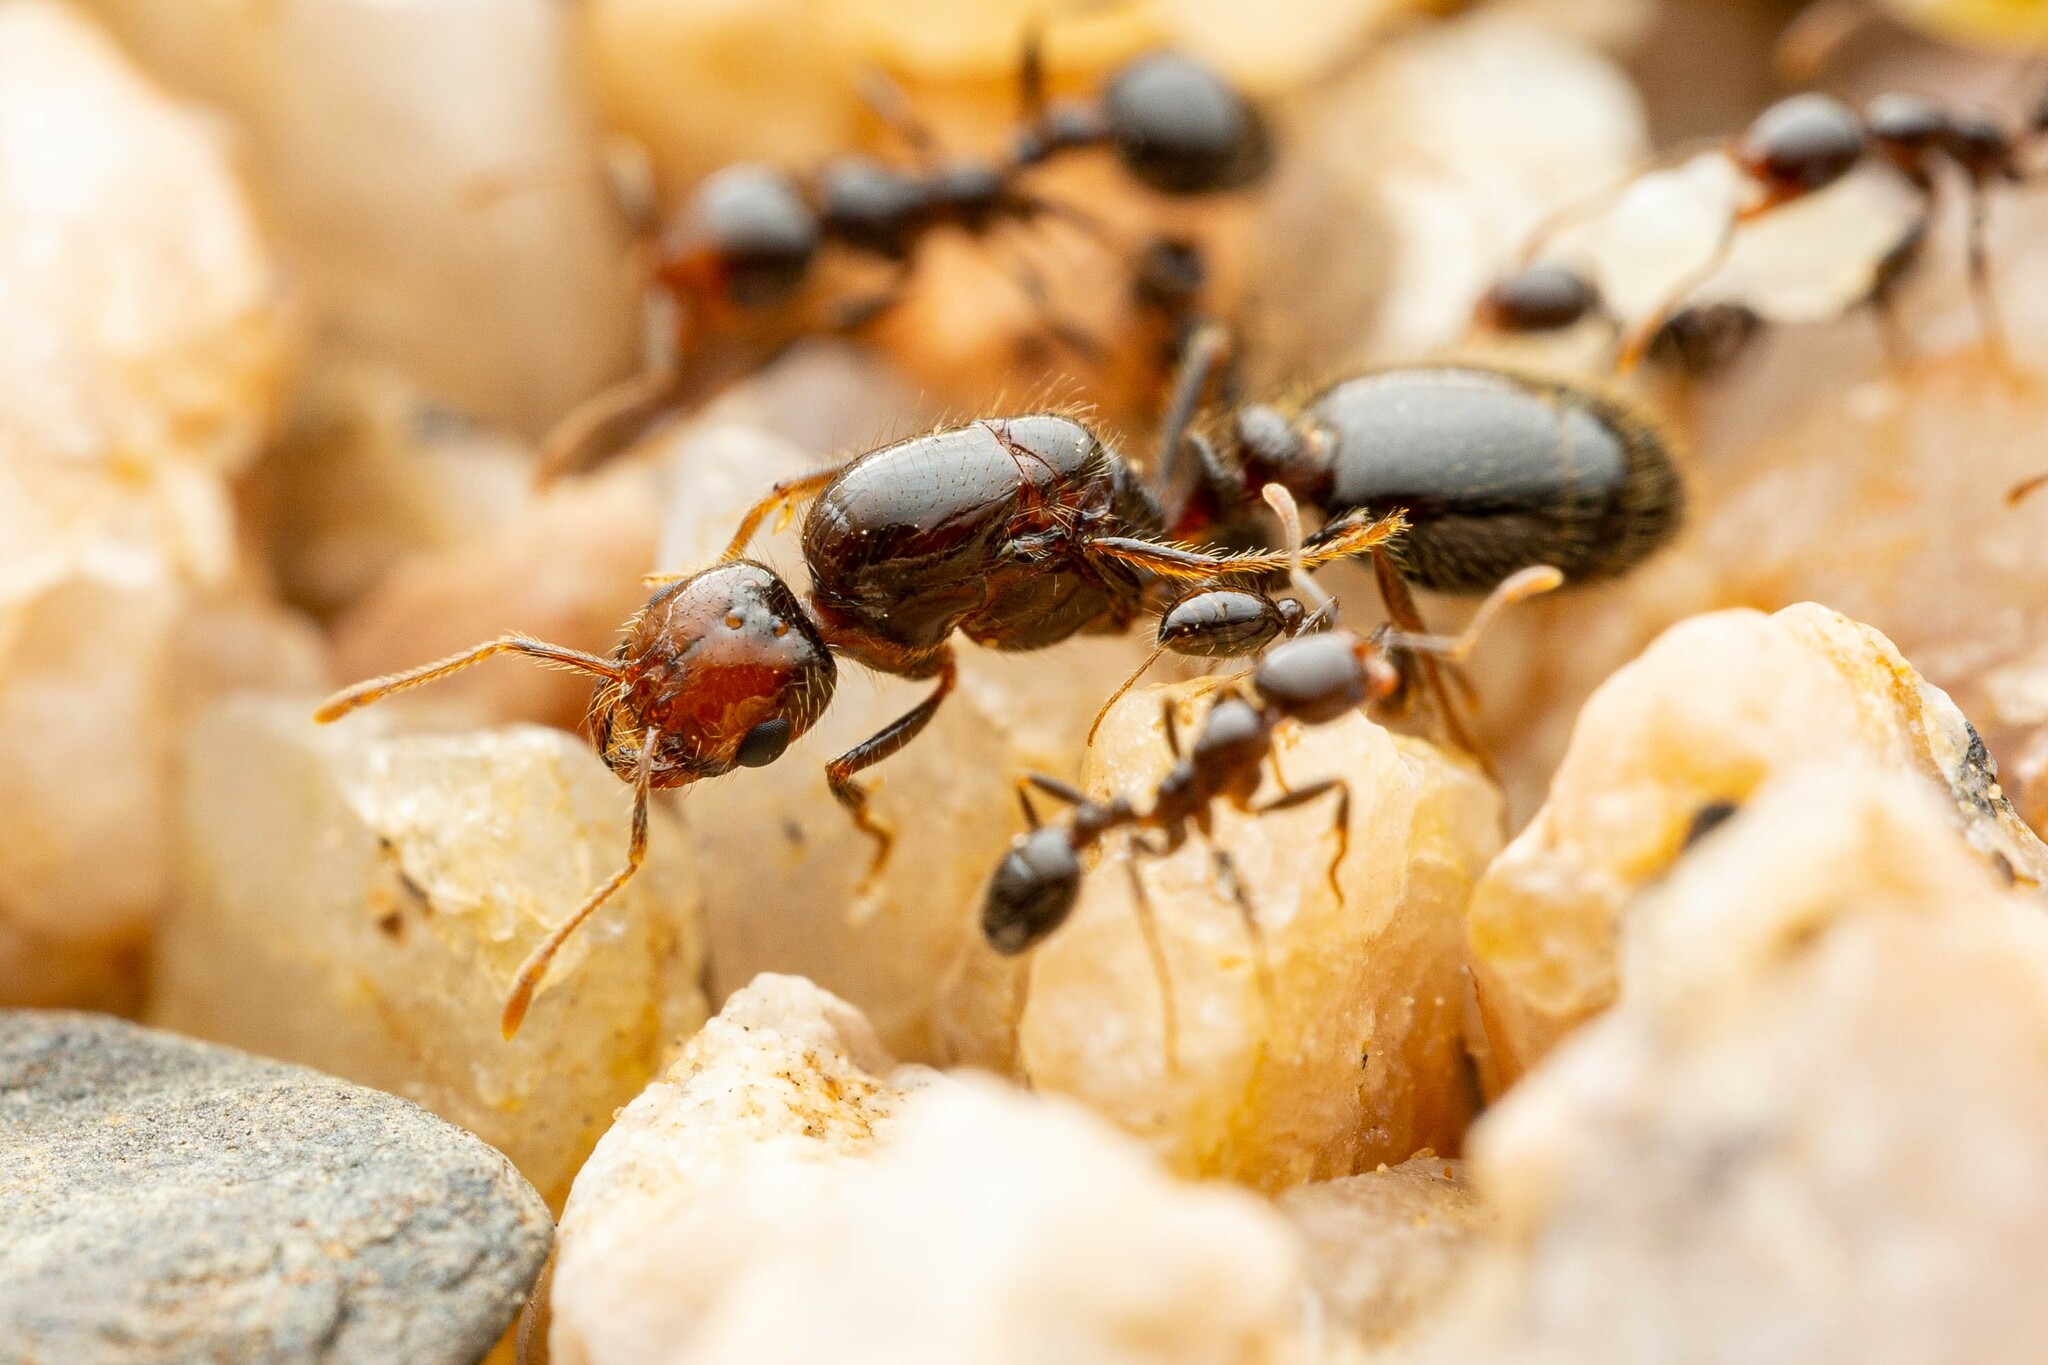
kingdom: Animalia
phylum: Arthropoda
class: Insecta
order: Hymenoptera
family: Formicidae
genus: Solenopsis
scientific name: Solenopsis xyloni
